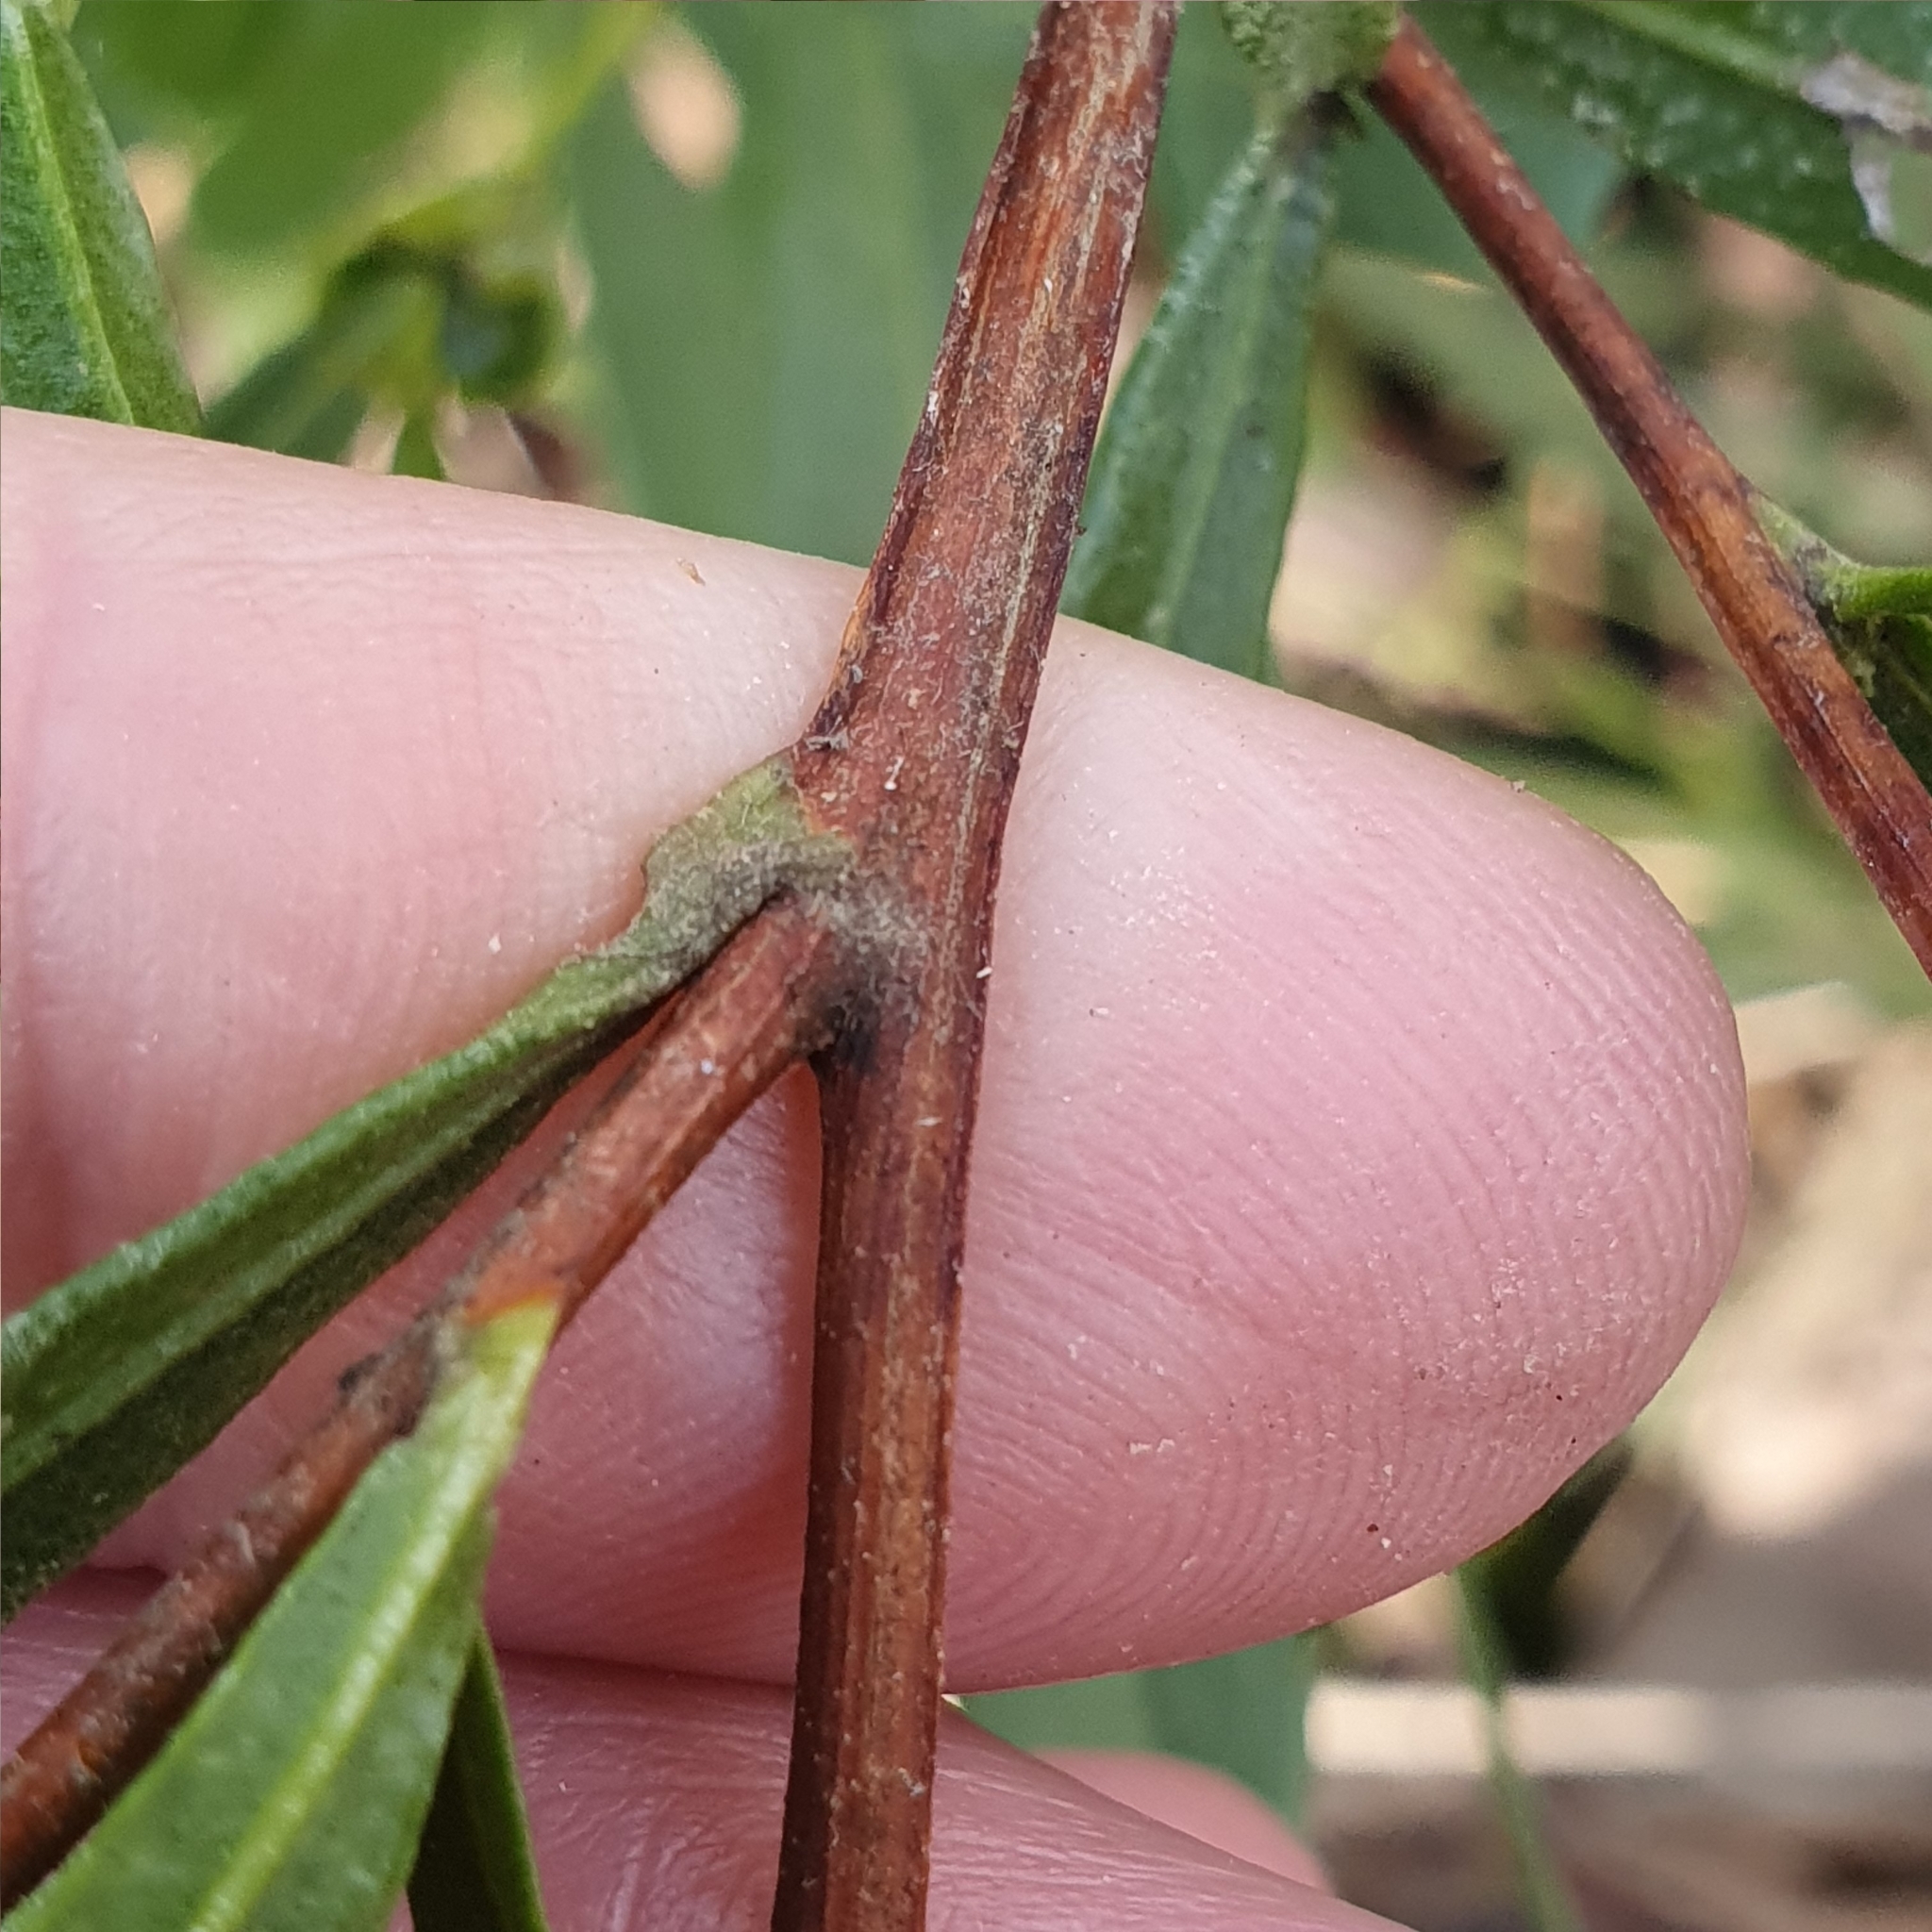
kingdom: Plantae
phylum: Tracheophyta
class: Magnoliopsida
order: Sapindales
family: Sapindaceae
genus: Dodonaea
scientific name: Dodonaea viscosa
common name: Hopbush
